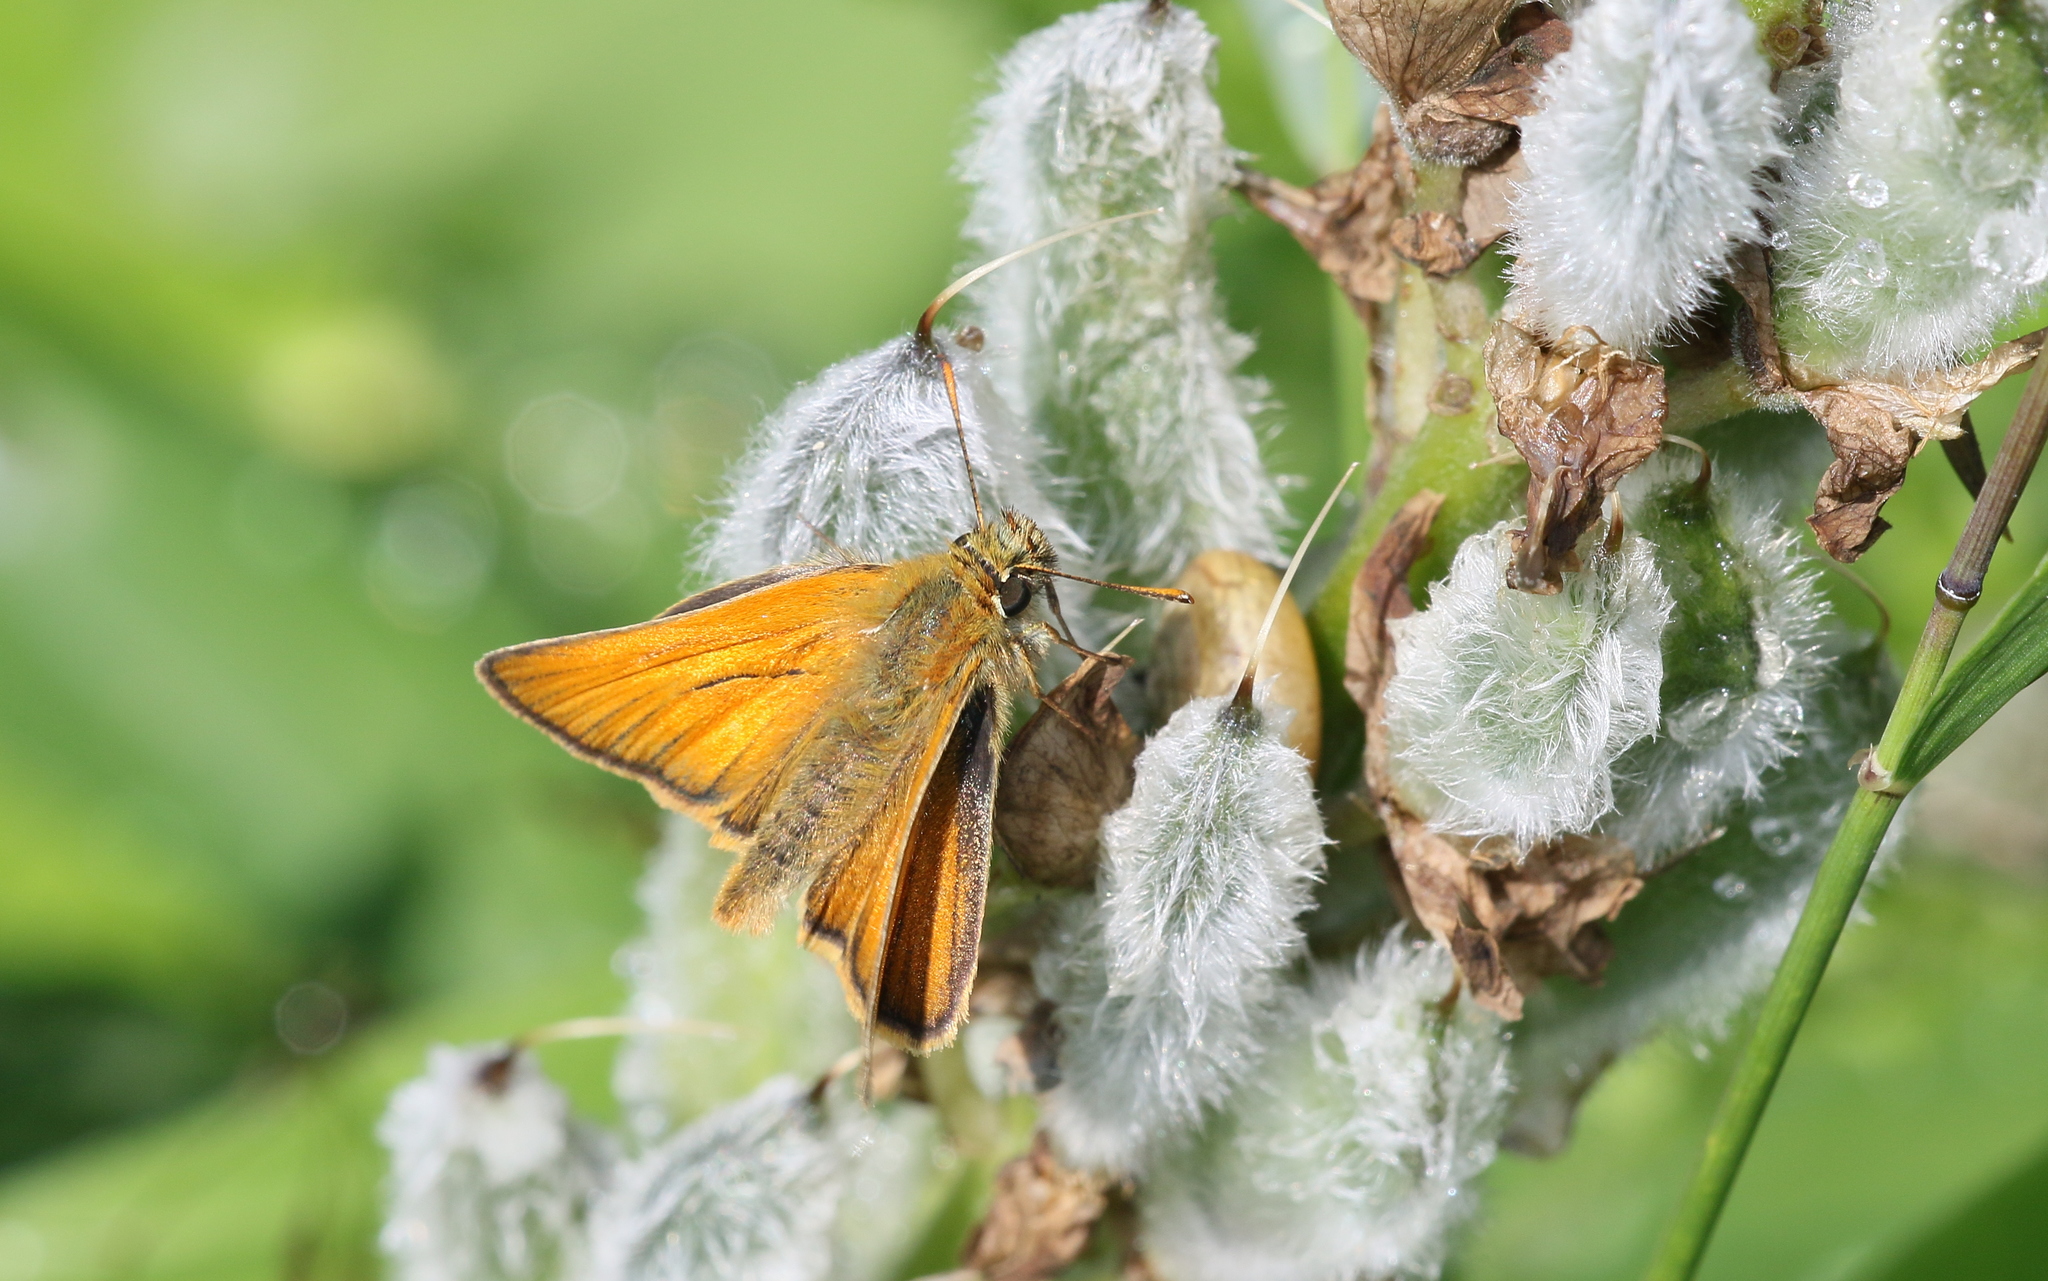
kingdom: Animalia
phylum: Arthropoda
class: Insecta
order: Lepidoptera
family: Hesperiidae
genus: Thymelicus
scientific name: Thymelicus sylvestris
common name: Small skipper
